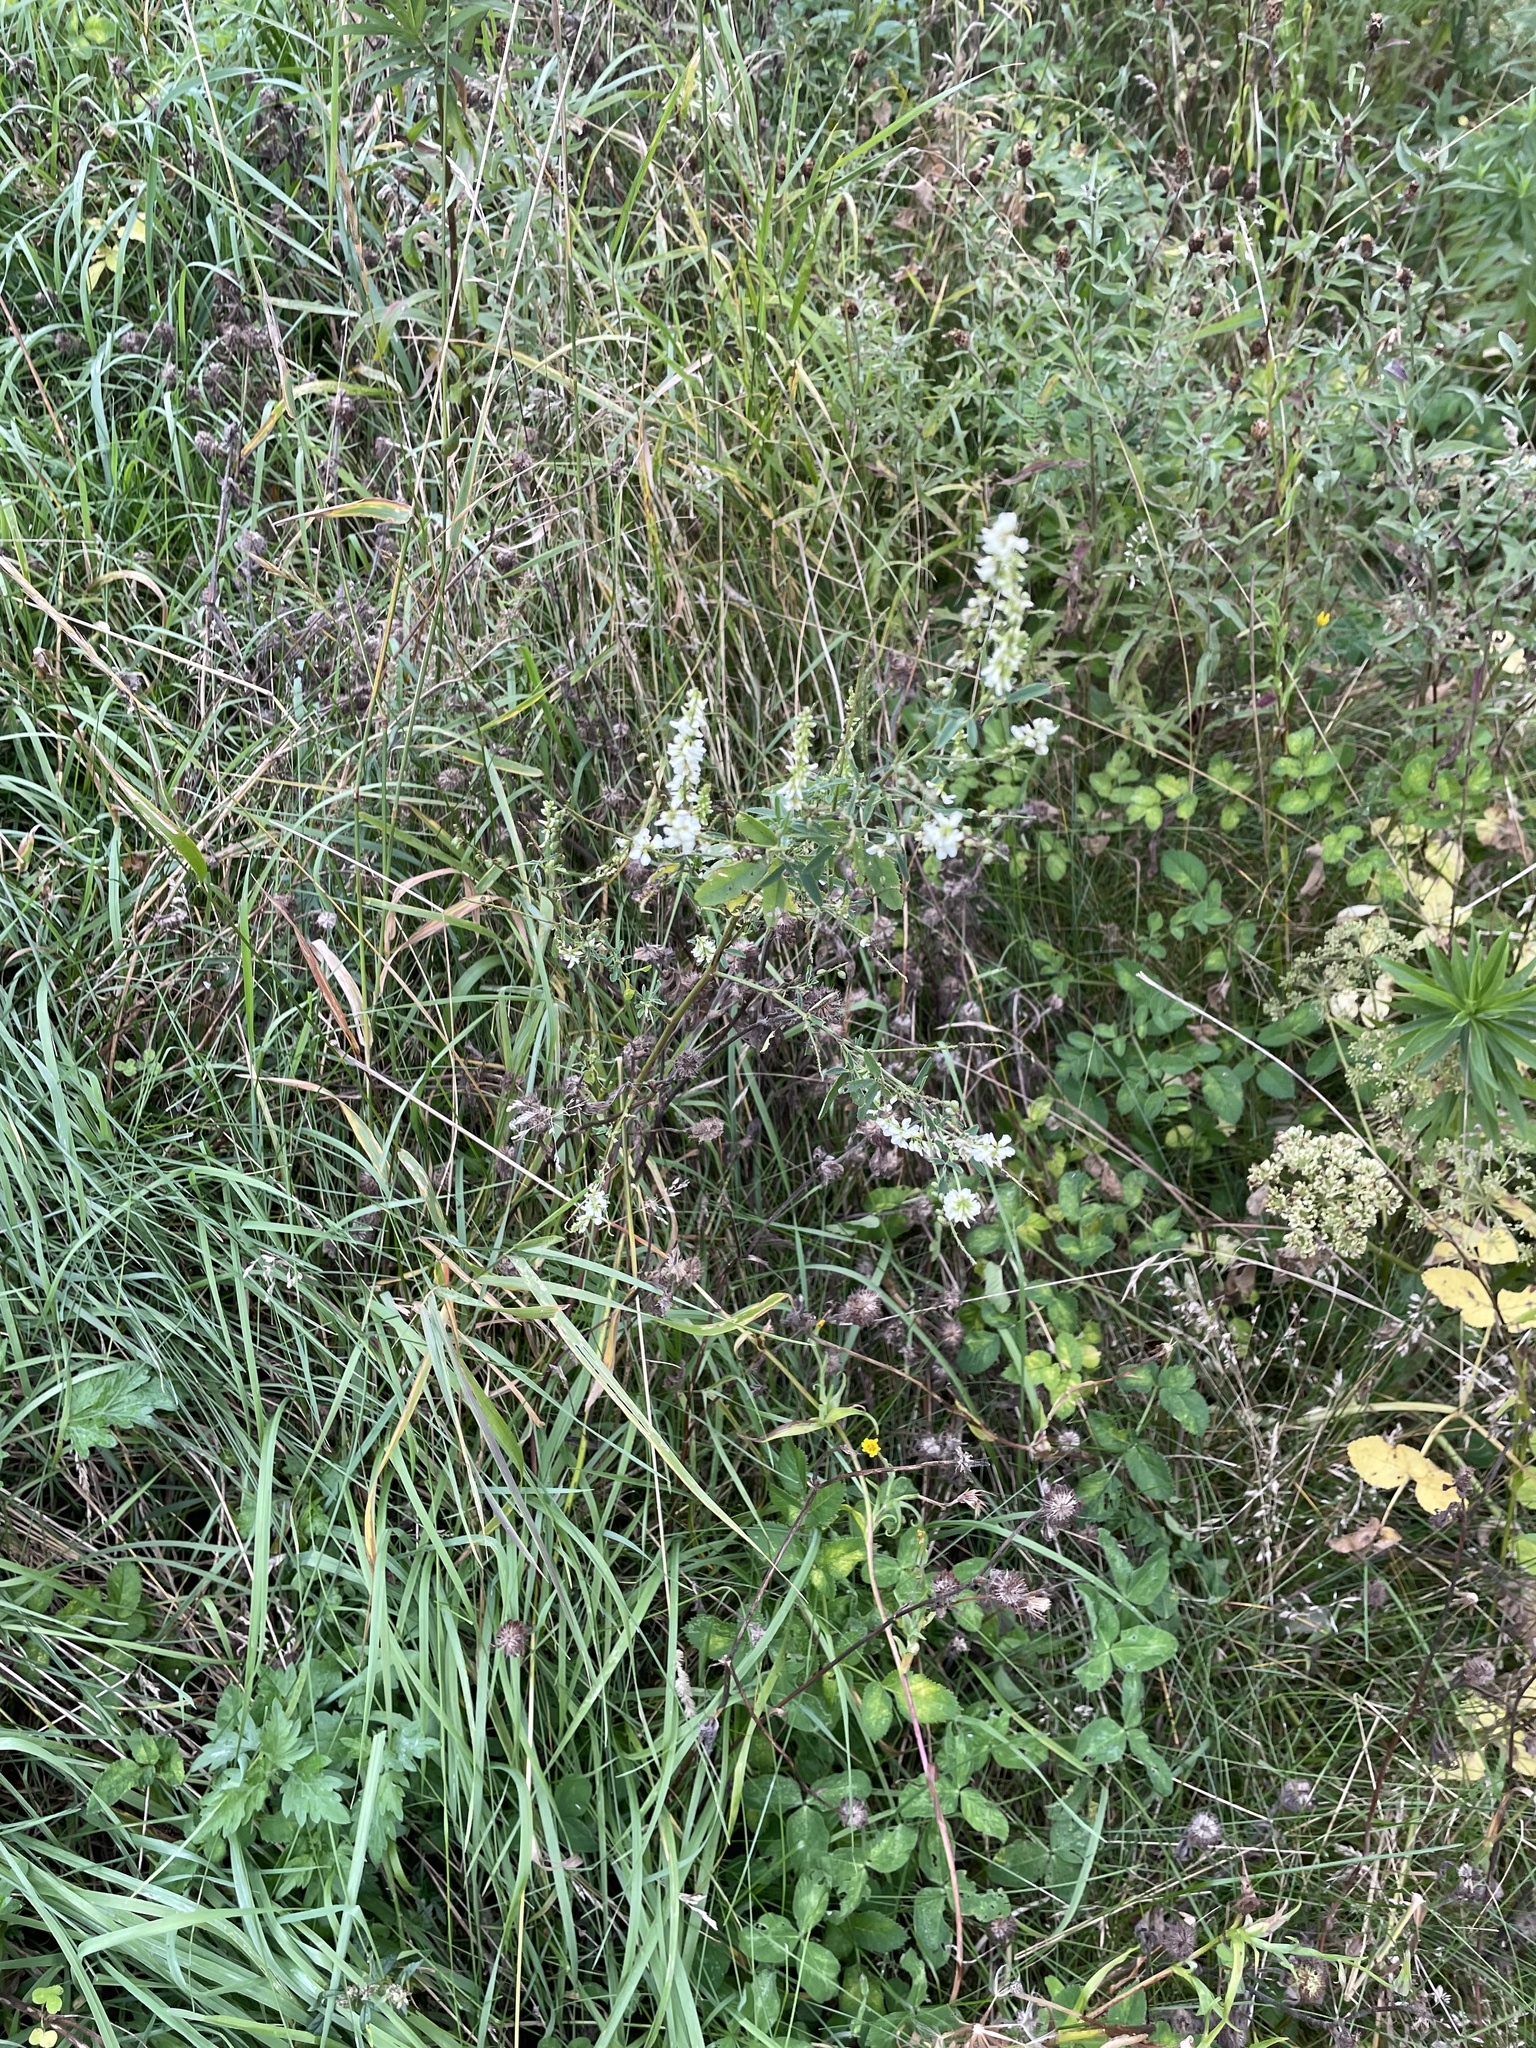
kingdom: Plantae
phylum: Tracheophyta
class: Magnoliopsida
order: Fabales
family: Fabaceae
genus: Melilotus
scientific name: Melilotus albus
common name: White melilot
